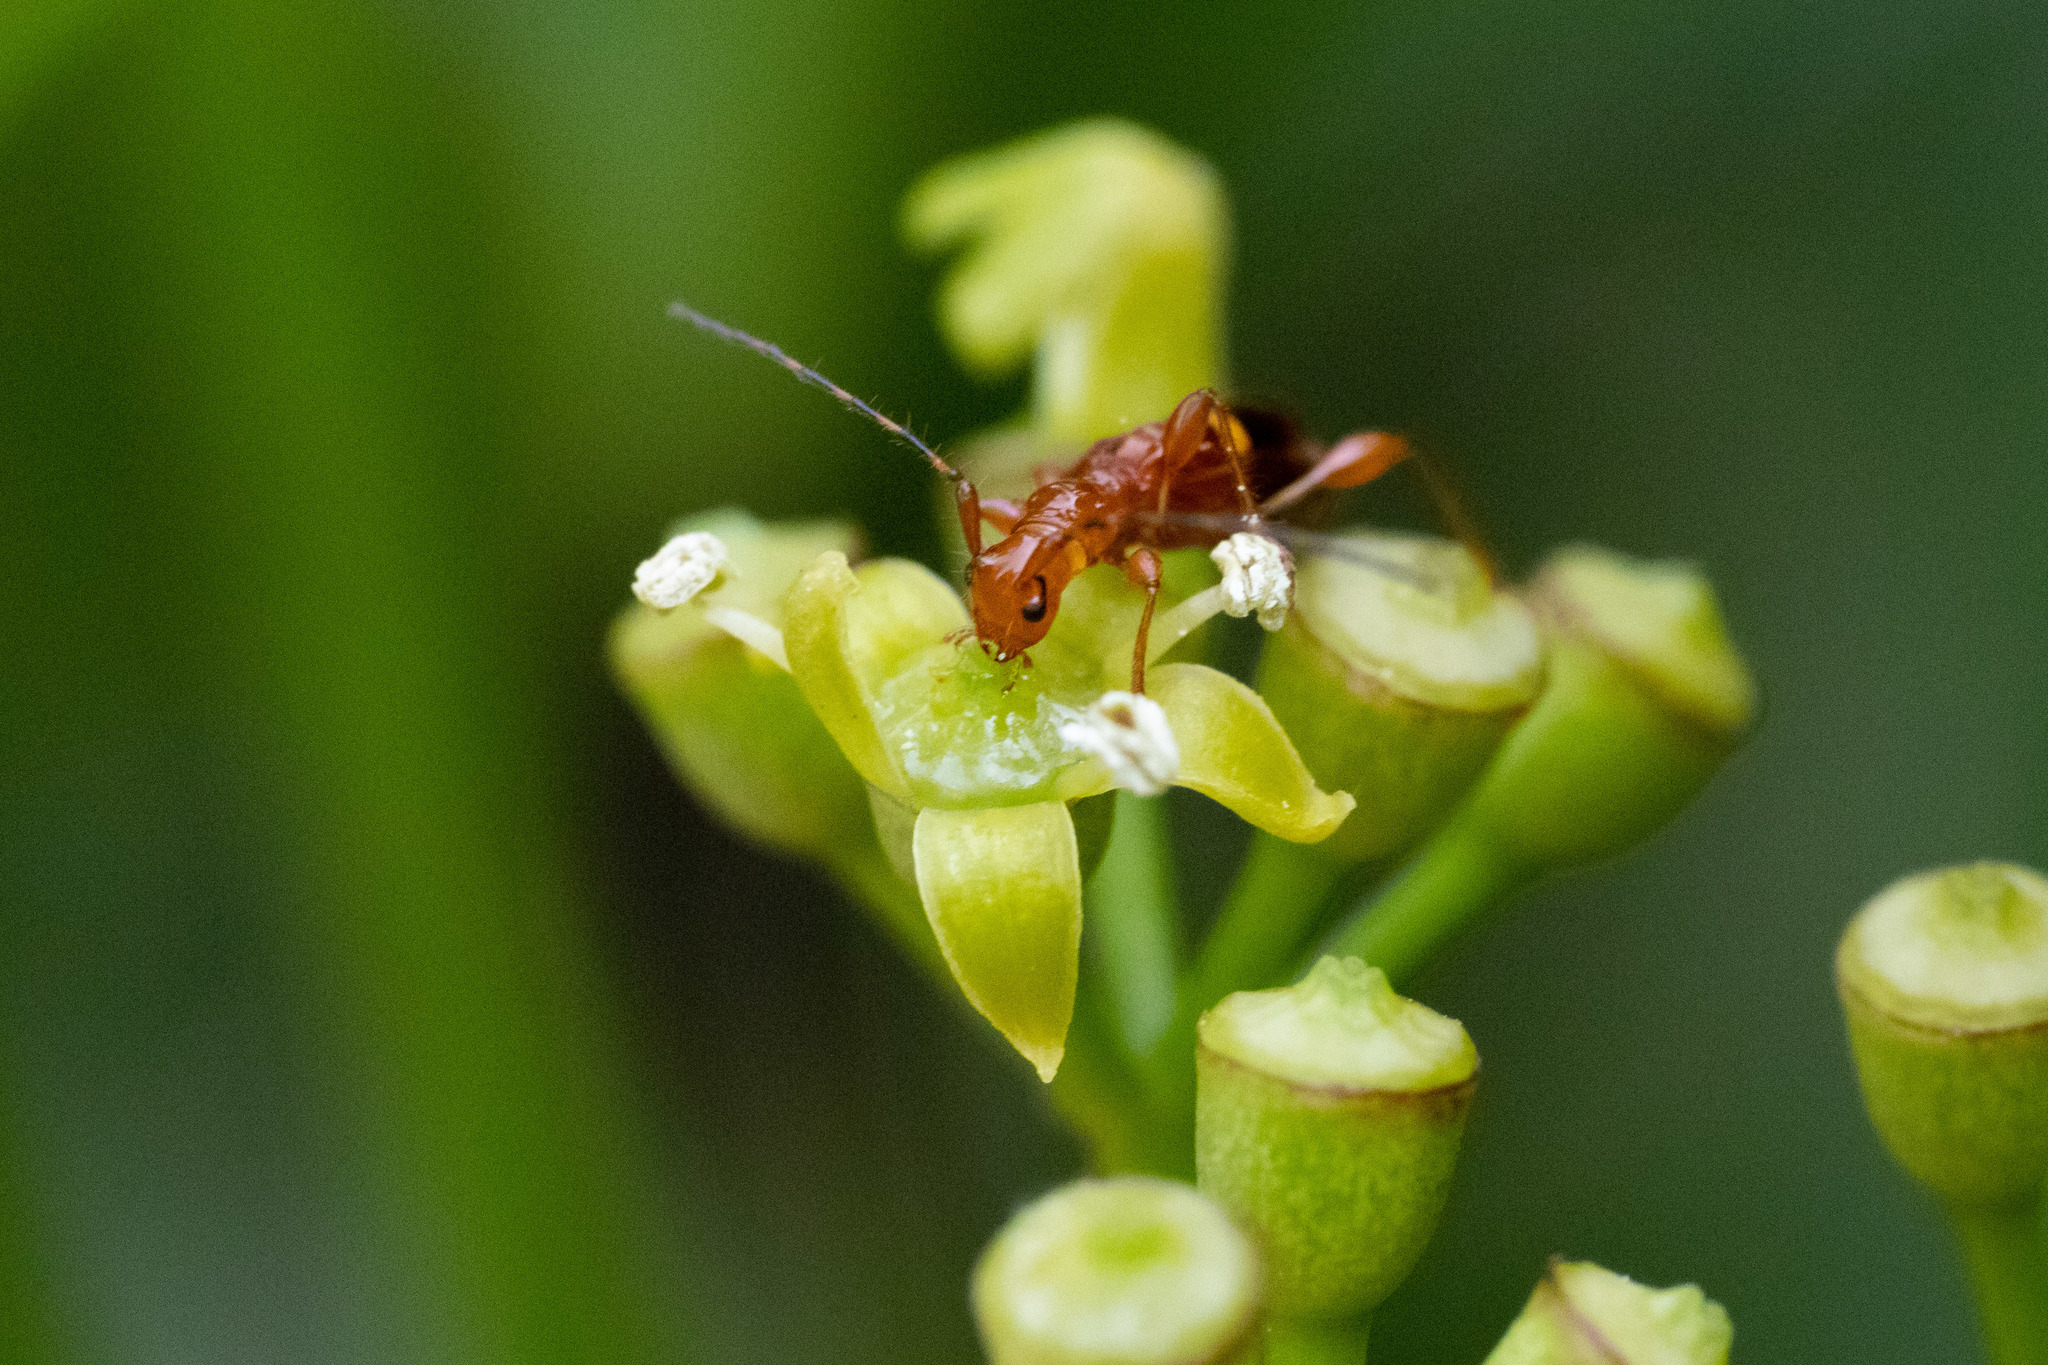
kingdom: Animalia
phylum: Arthropoda
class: Insecta
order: Coleoptera
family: Cerambycidae
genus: Zorion
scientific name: Zorion australe
